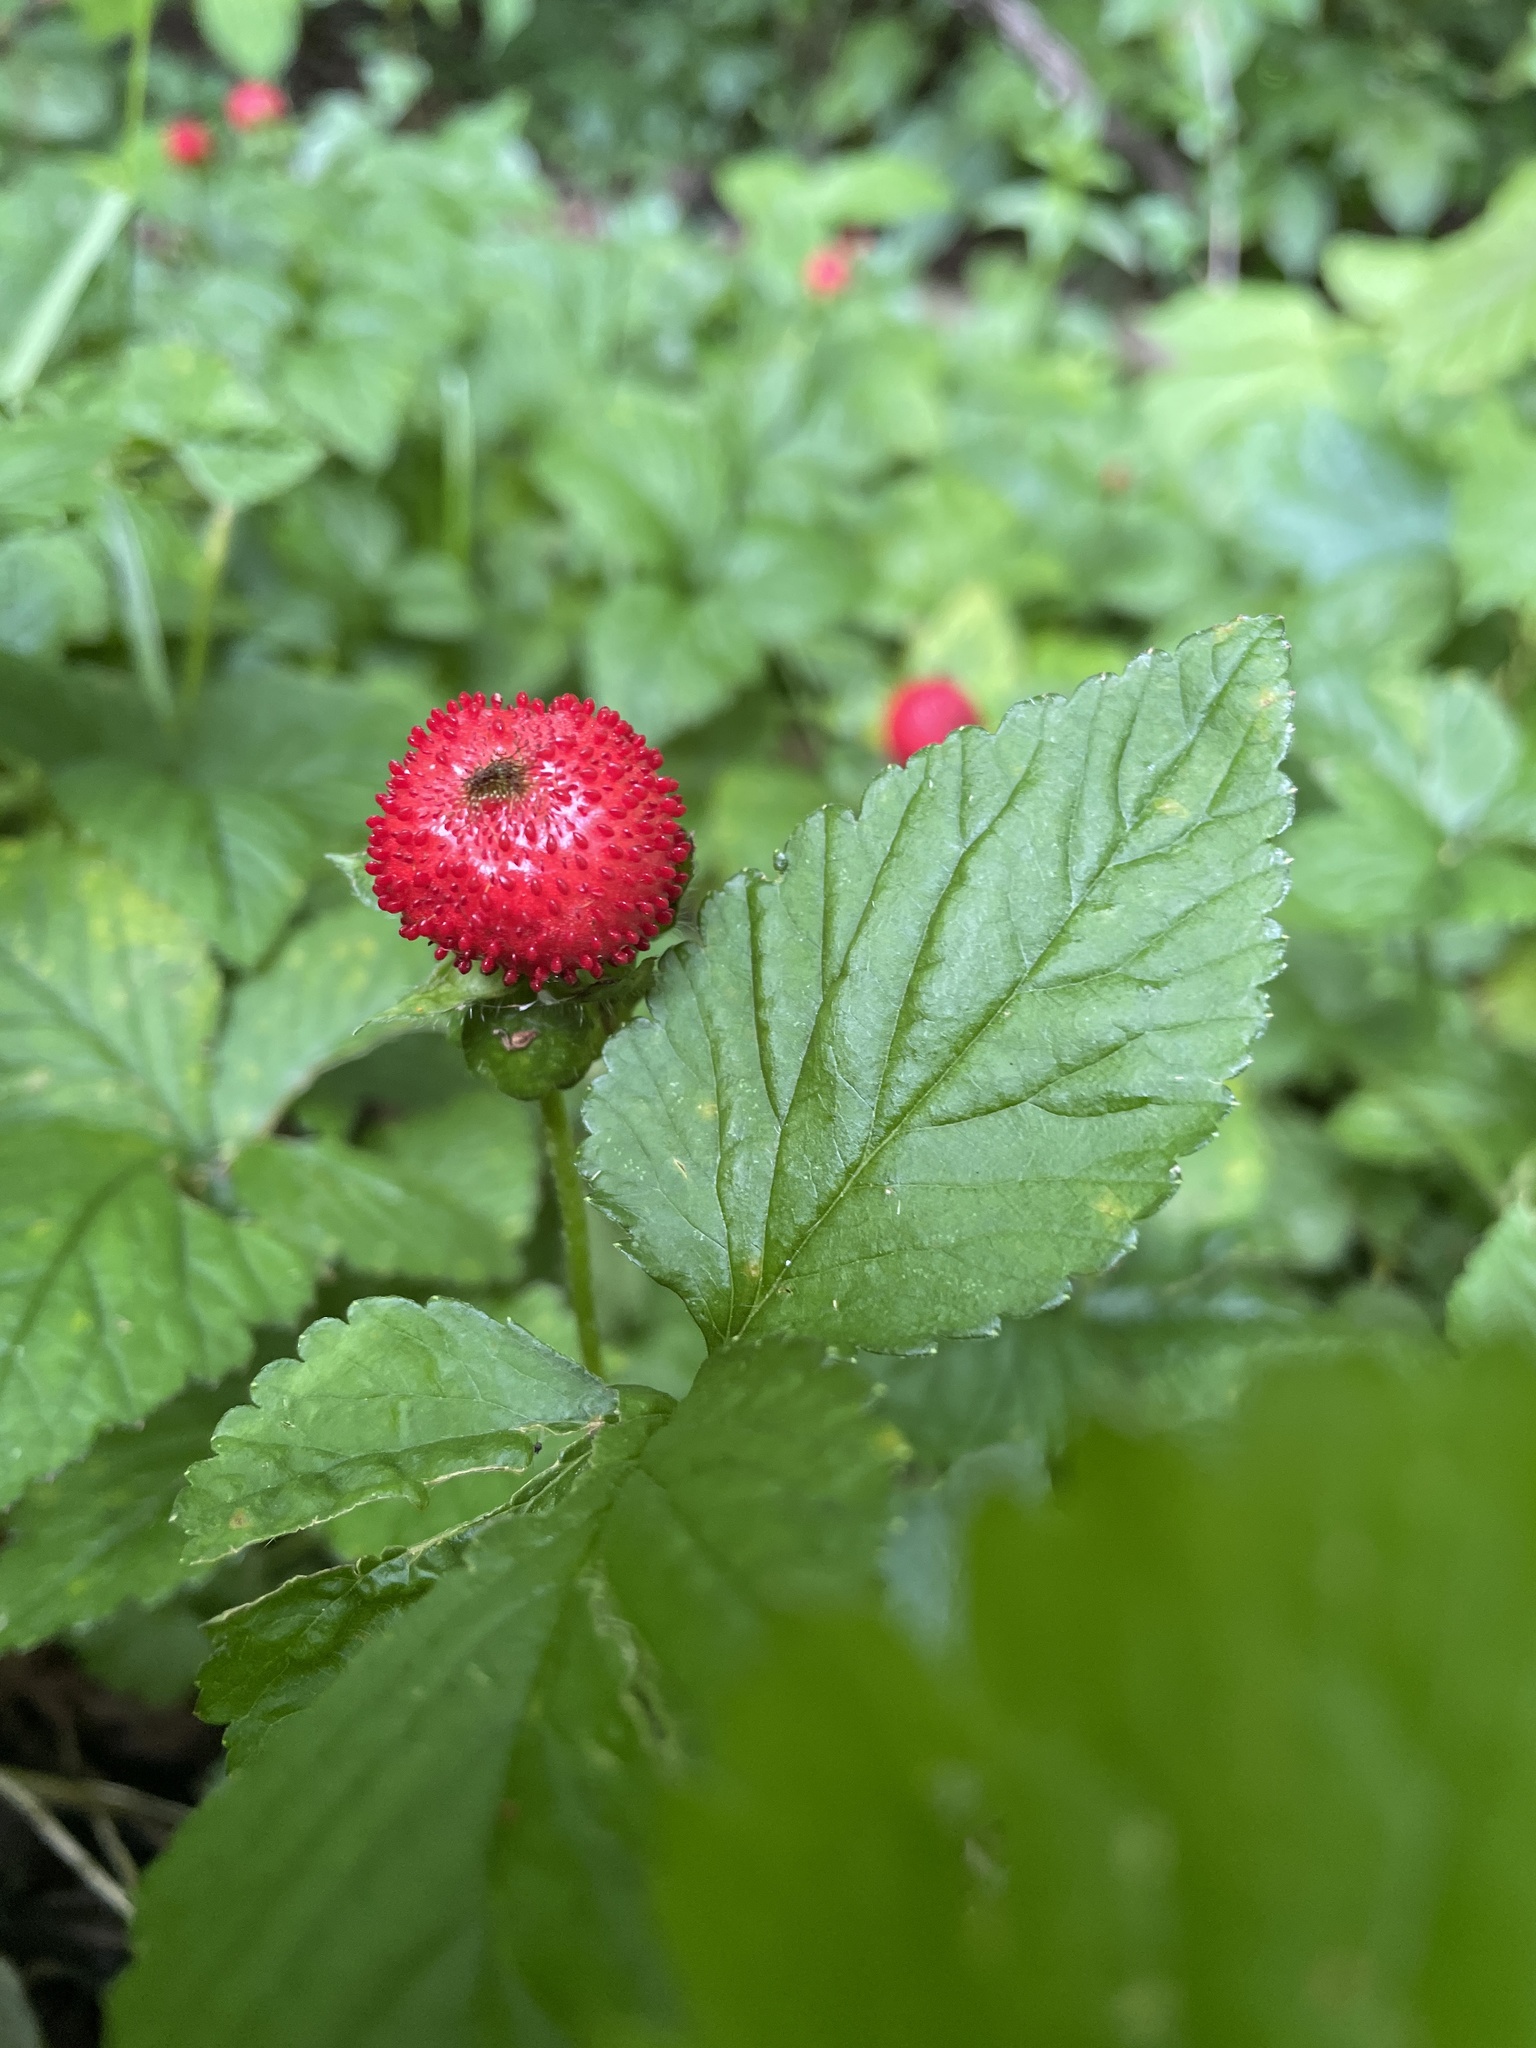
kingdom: Plantae
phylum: Tracheophyta
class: Magnoliopsida
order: Rosales
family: Rosaceae
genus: Potentilla
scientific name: Potentilla indica
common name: Yellow-flowered strawberry
